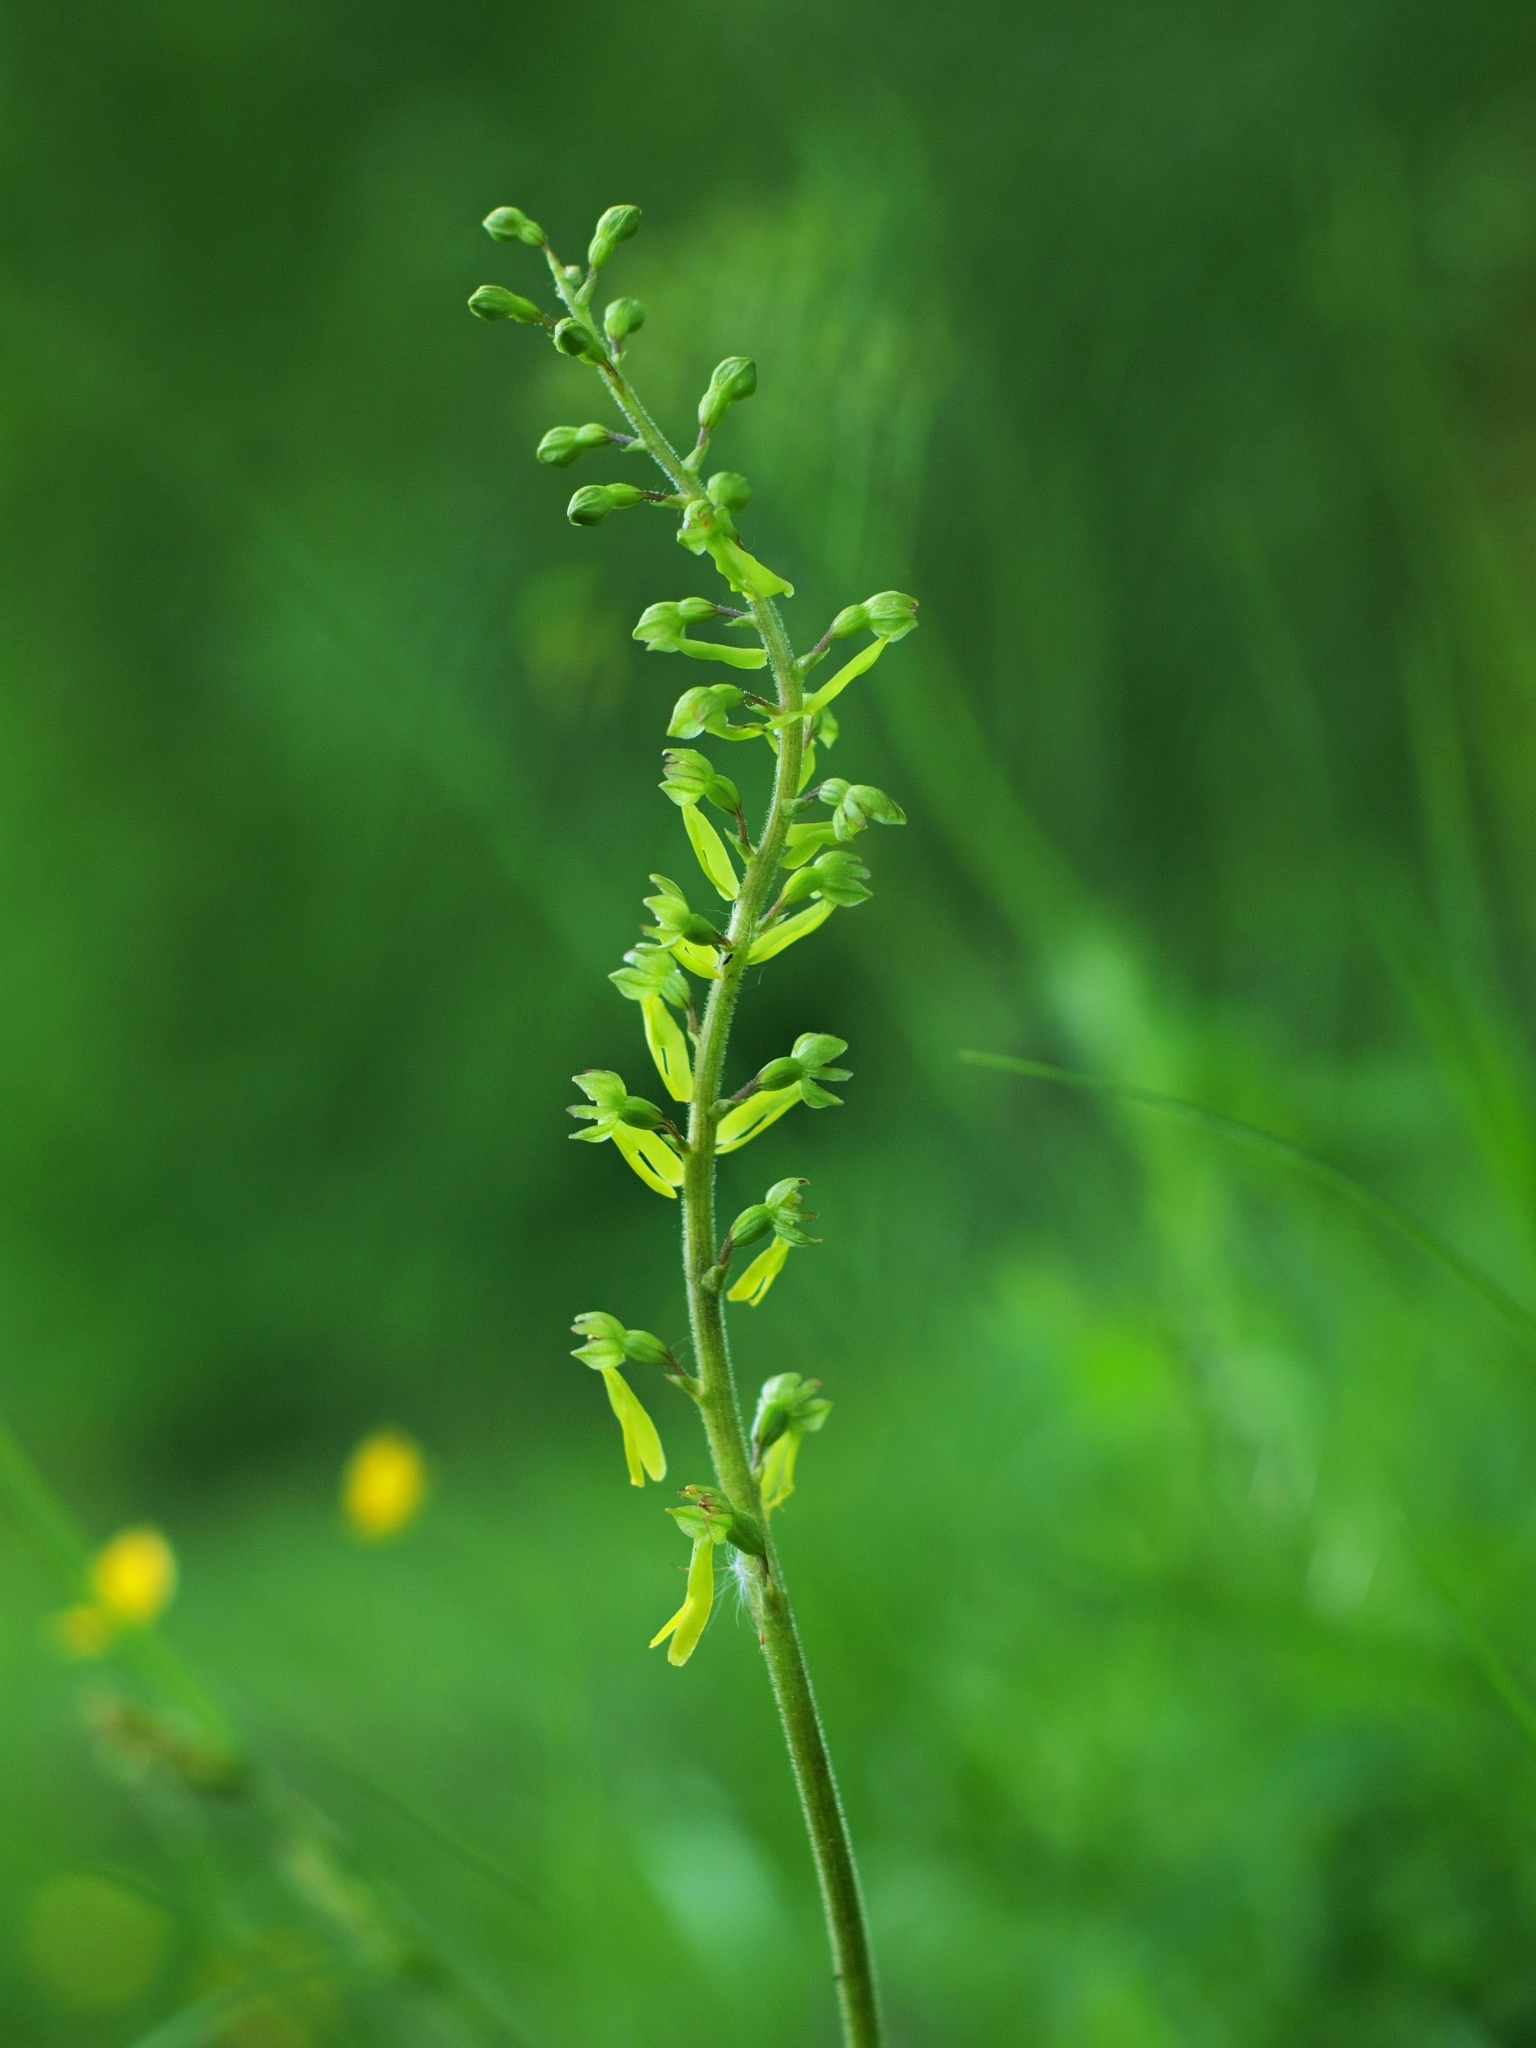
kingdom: Plantae
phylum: Tracheophyta
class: Liliopsida
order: Asparagales
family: Orchidaceae
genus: Neottia
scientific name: Neottia ovata
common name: Common twayblade
